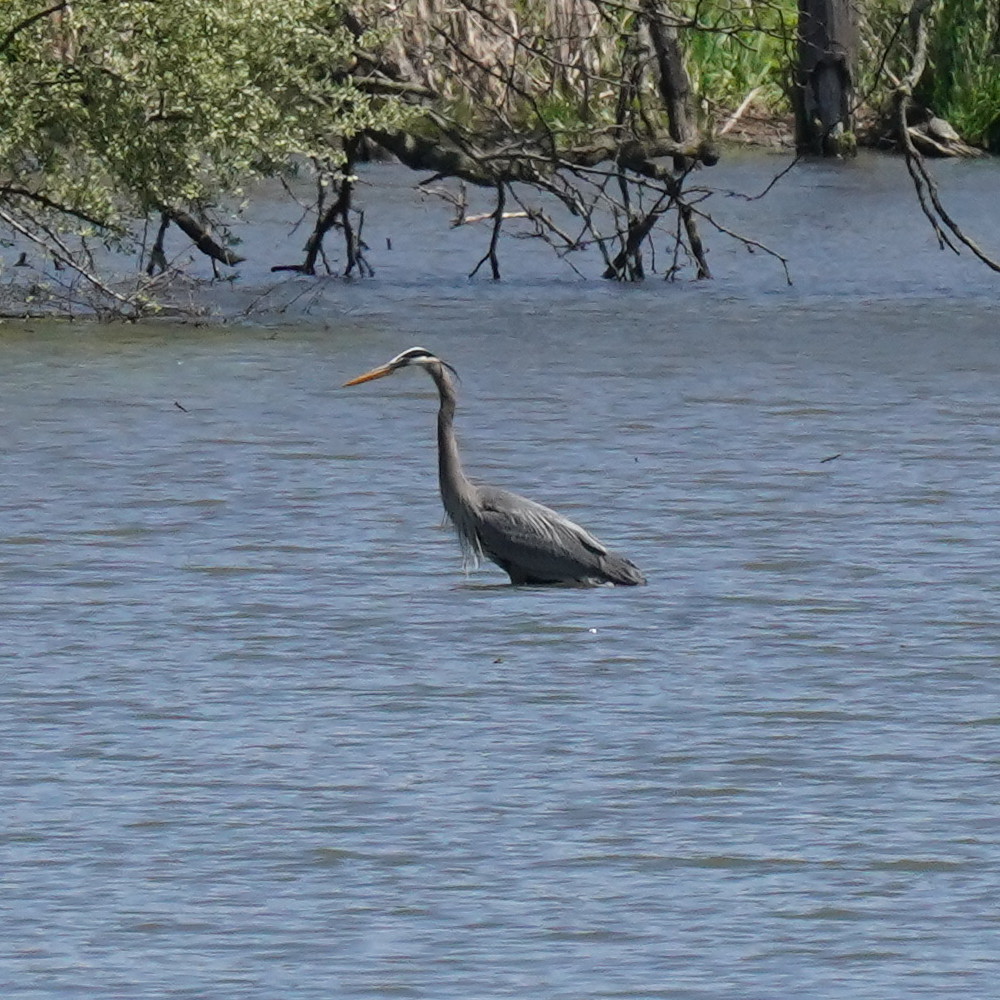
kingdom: Animalia
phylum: Chordata
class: Aves
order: Pelecaniformes
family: Ardeidae
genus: Ardea
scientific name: Ardea herodias
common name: Great blue heron
